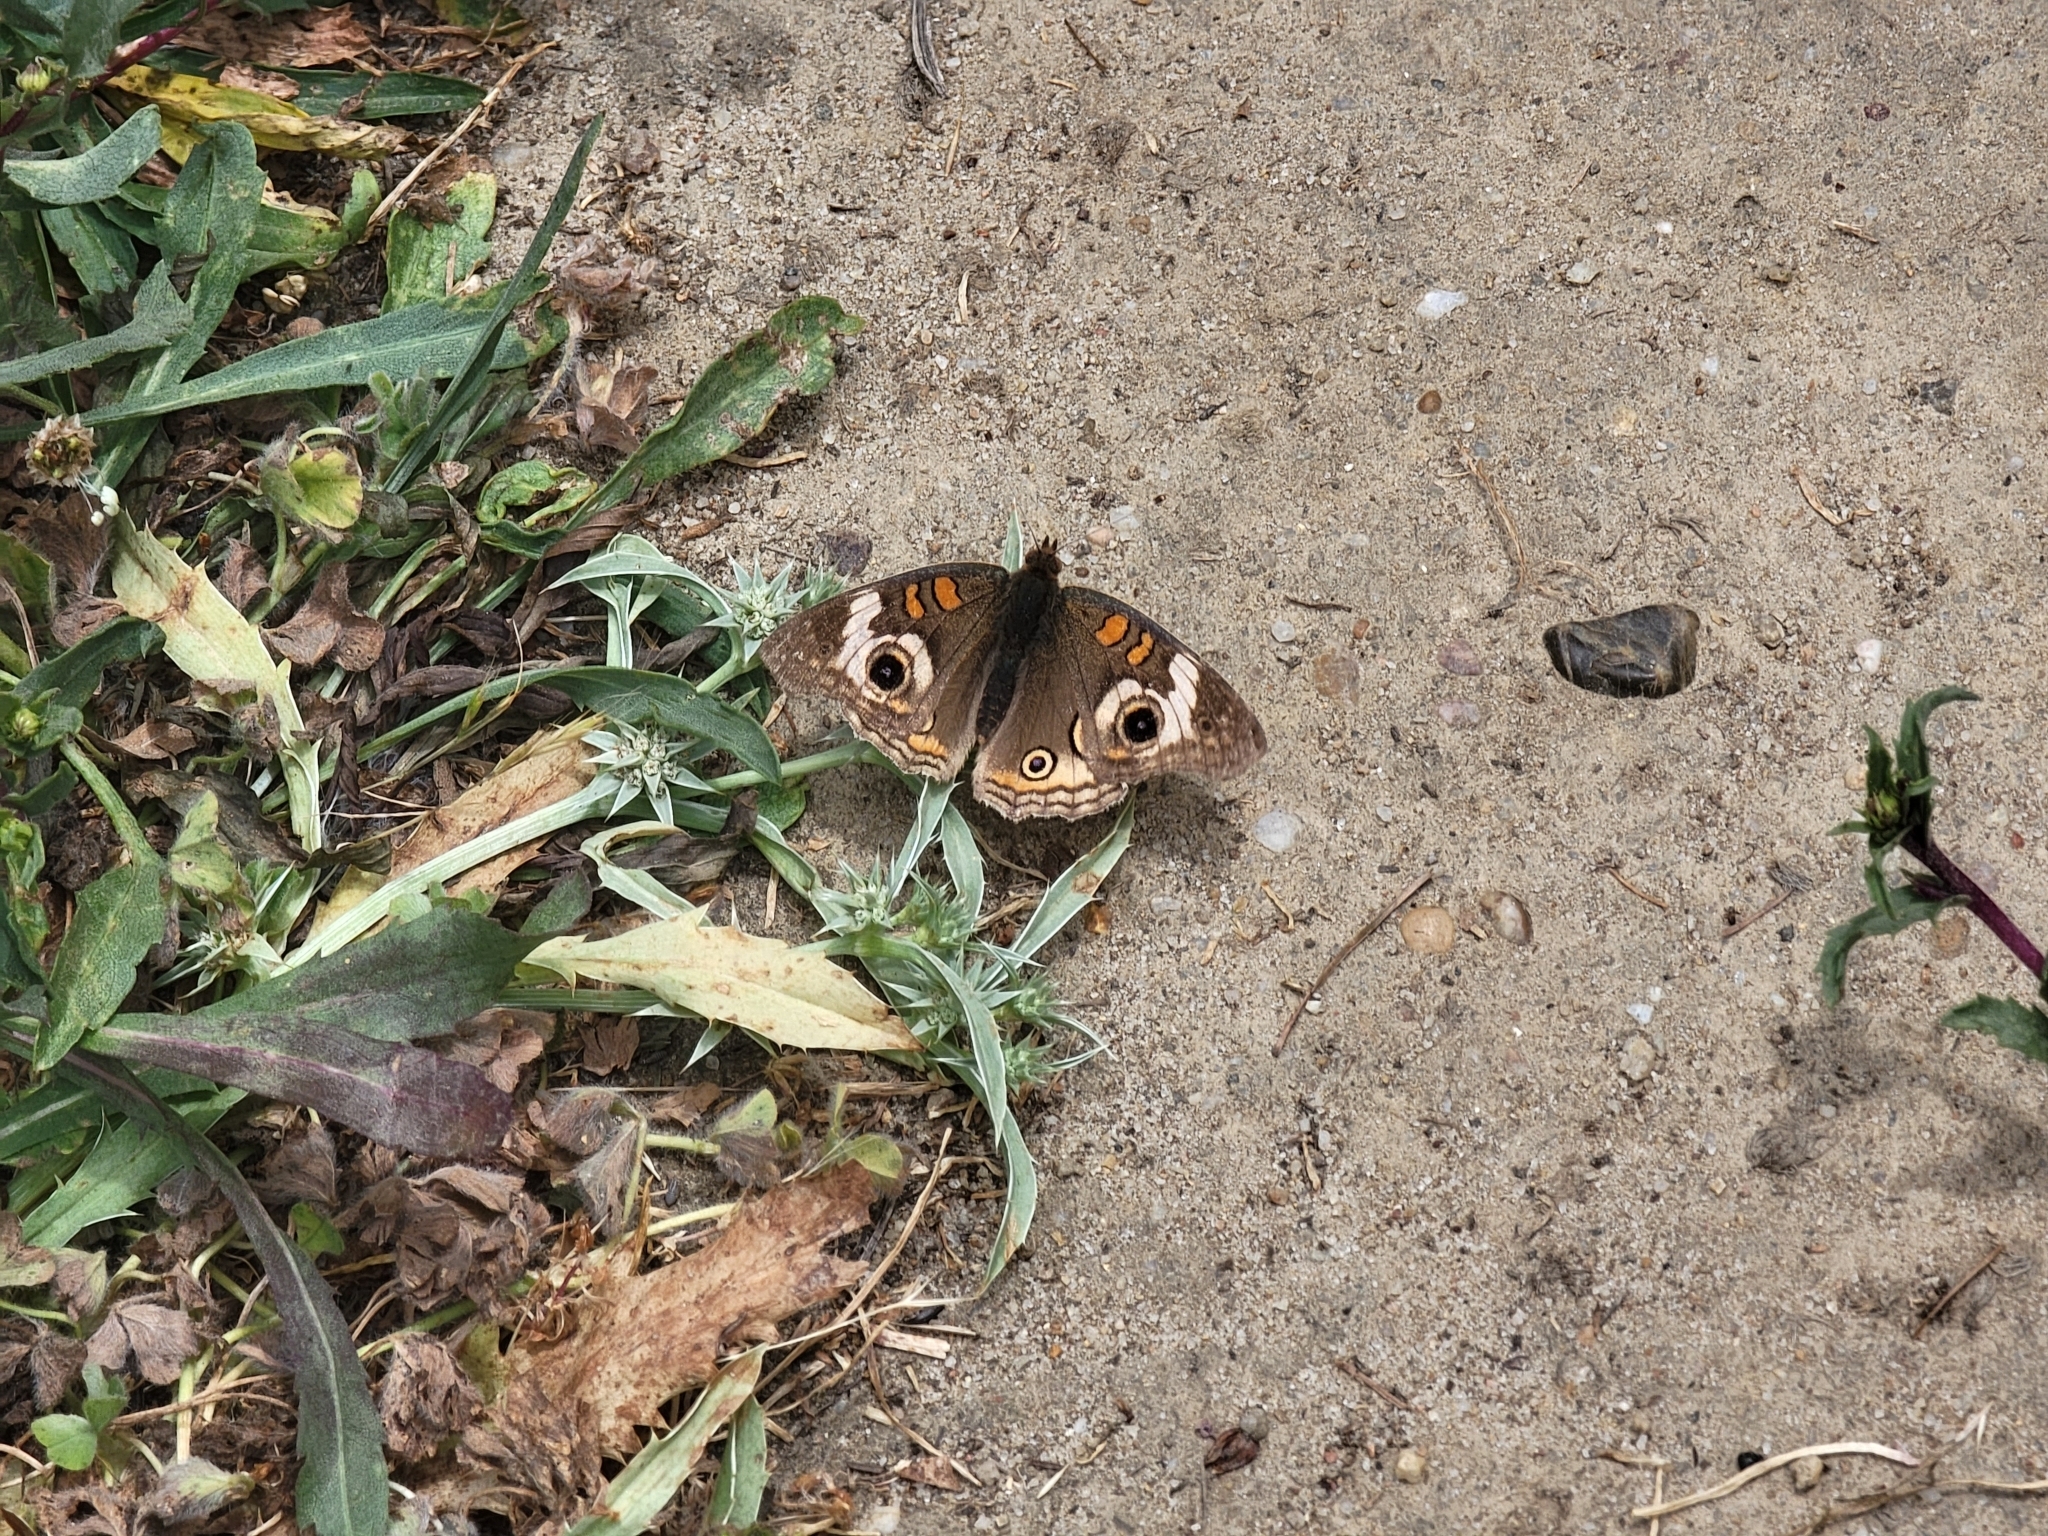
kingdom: Animalia
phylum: Arthropoda
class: Insecta
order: Lepidoptera
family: Nymphalidae
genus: Junonia
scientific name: Junonia grisea
